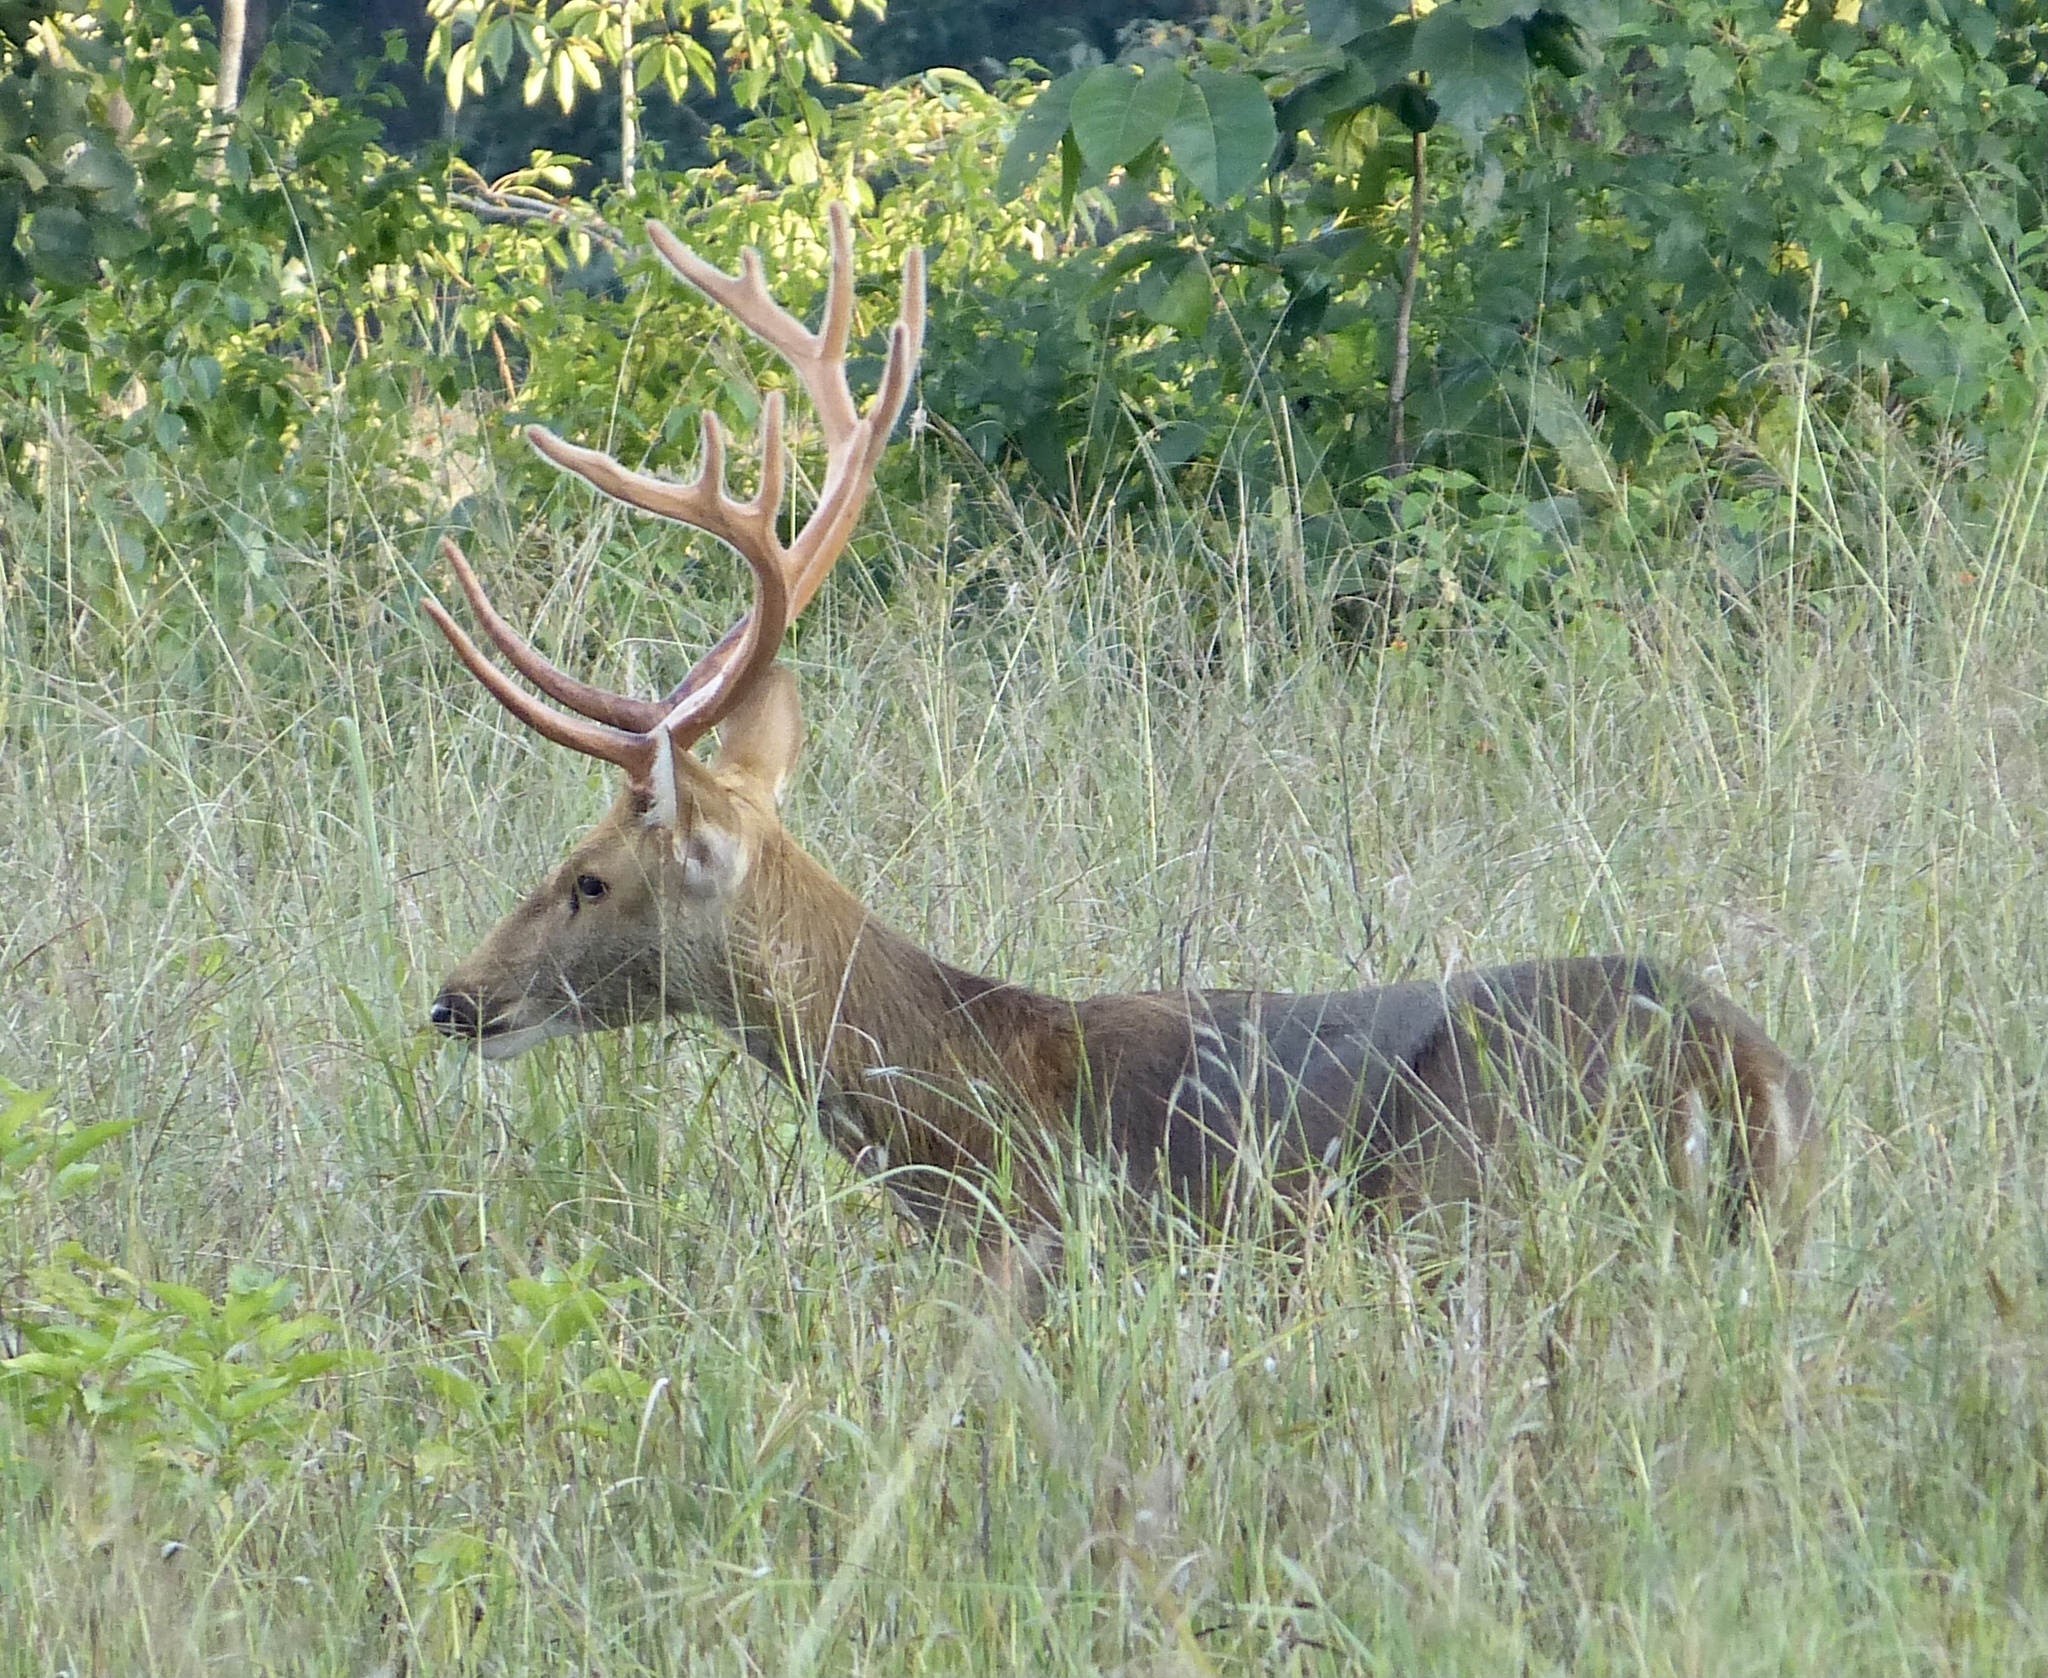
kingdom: Animalia
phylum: Chordata
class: Mammalia
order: Artiodactyla
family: Cervidae
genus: Rucervus
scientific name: Rucervus duvaucelii
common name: Barasingha
